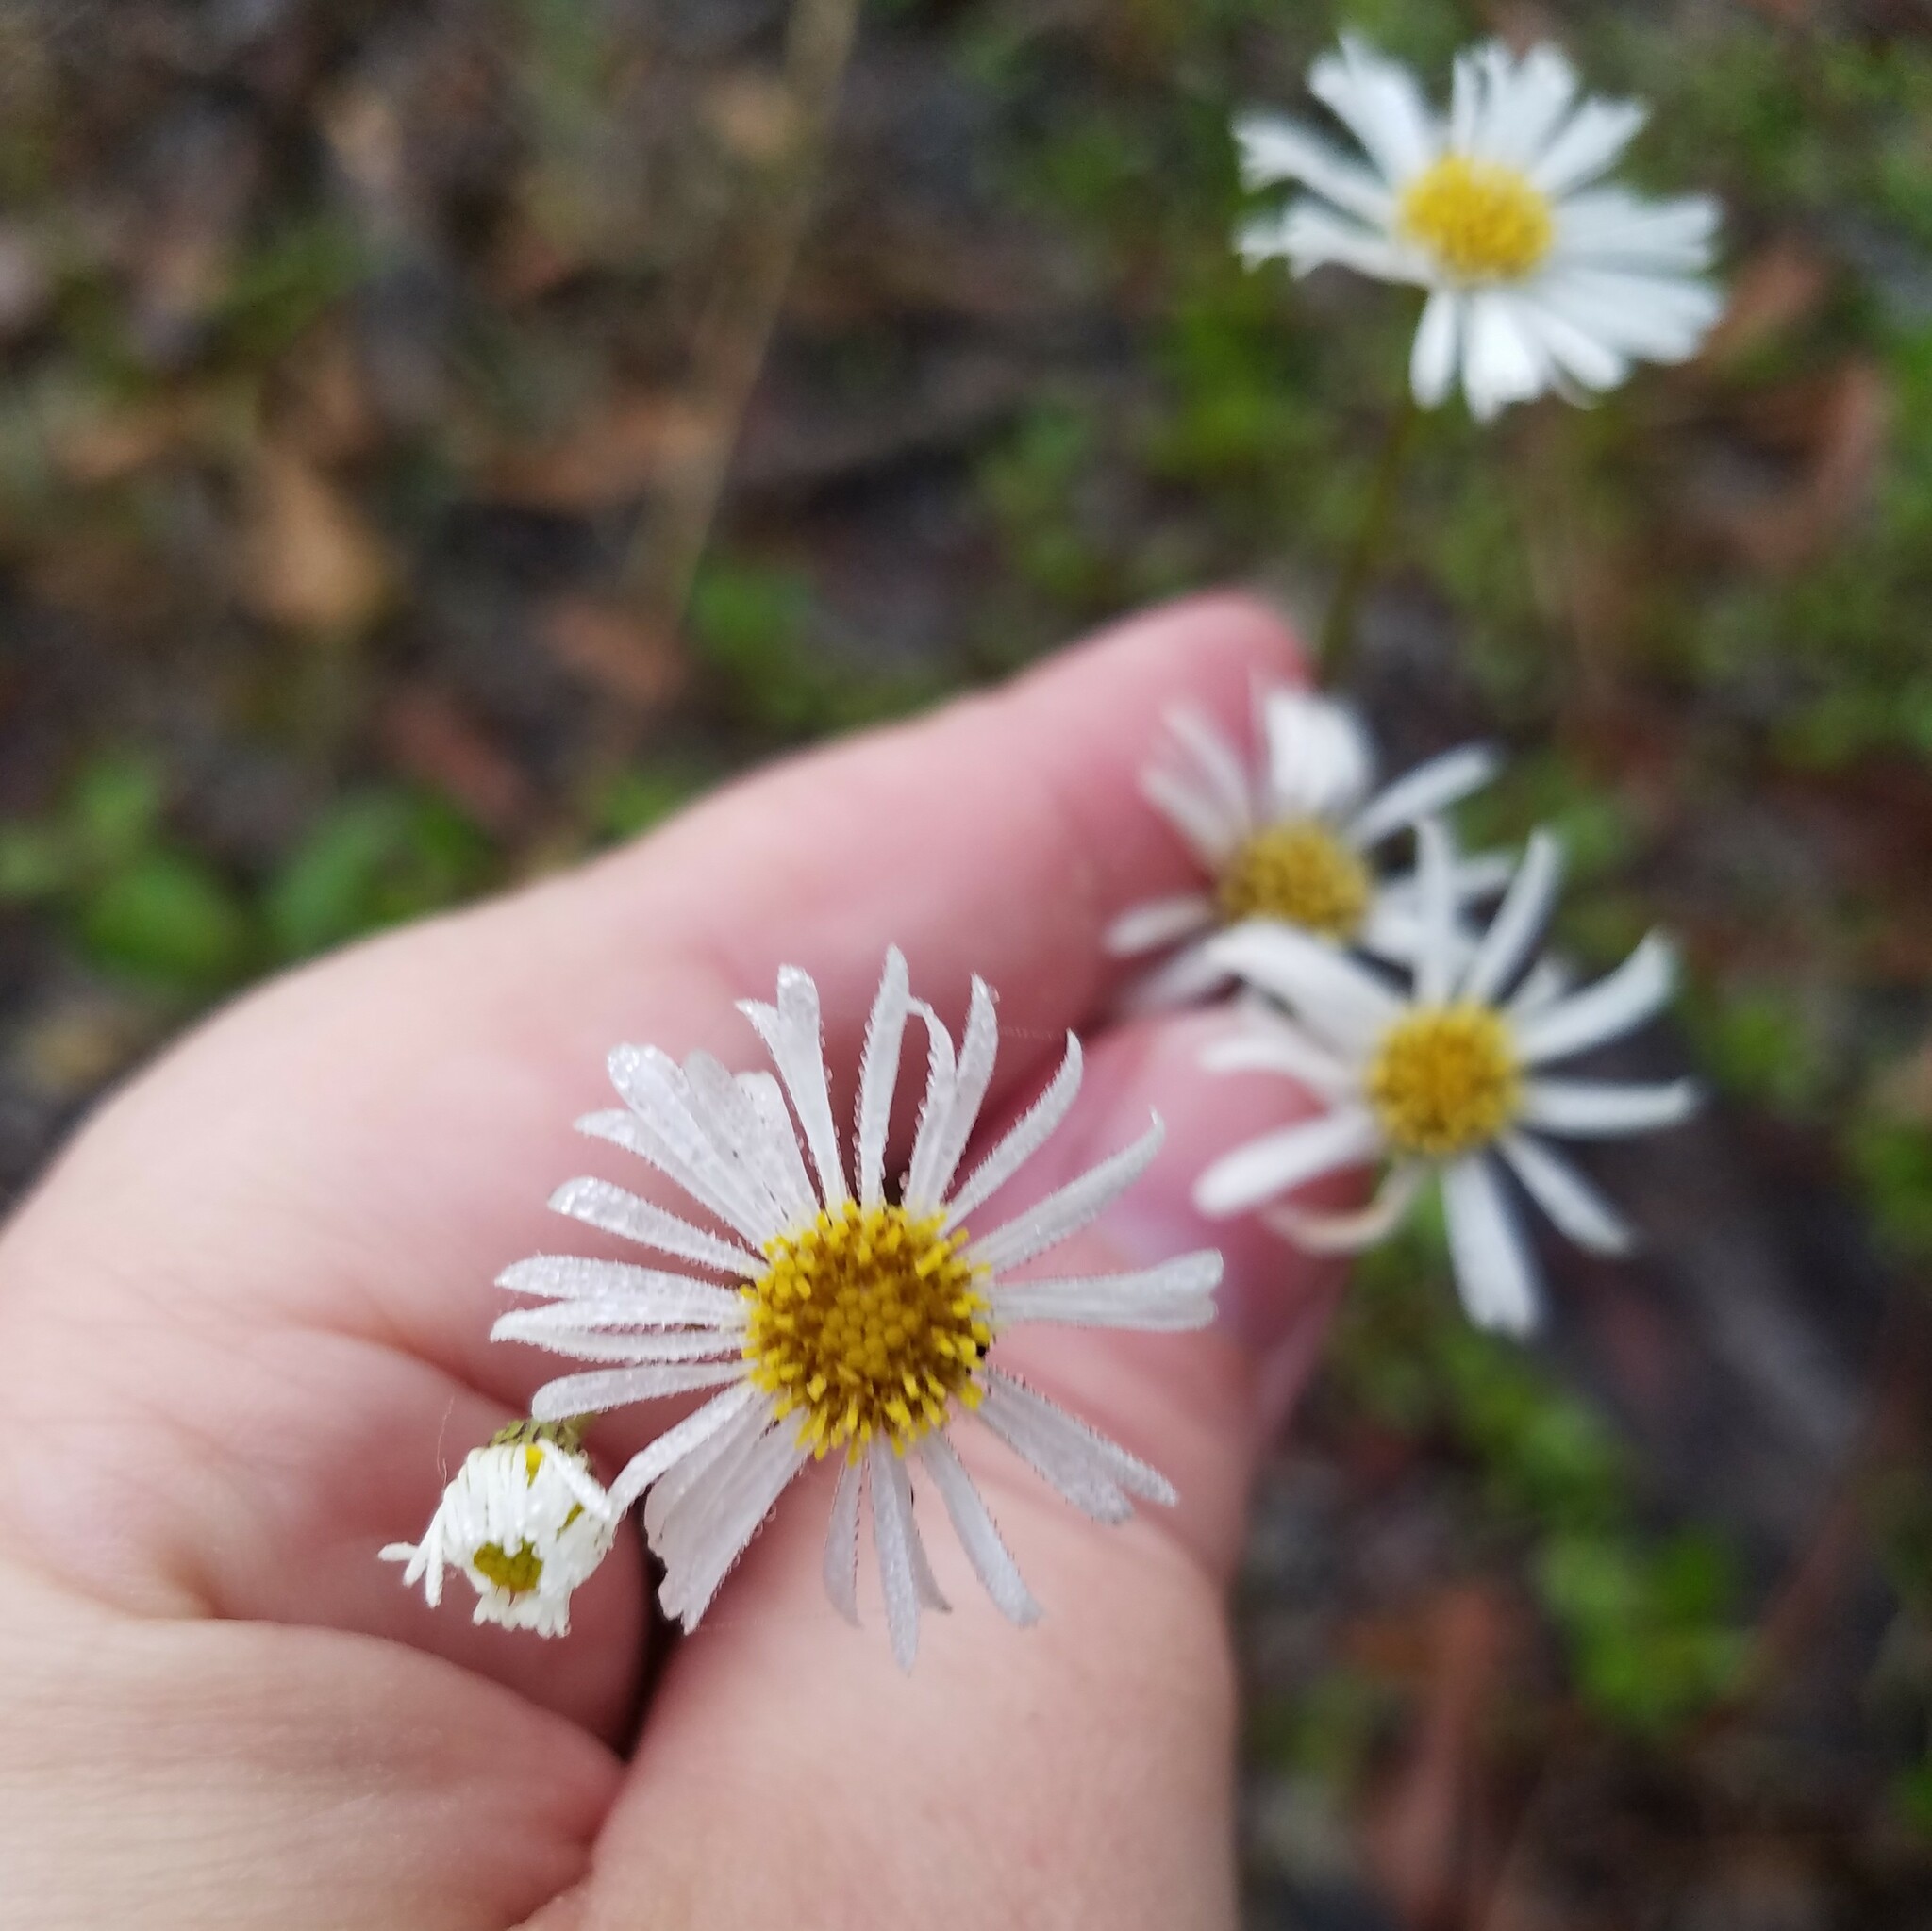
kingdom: Plantae
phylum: Tracheophyta
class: Magnoliopsida
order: Asterales
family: Asteraceae
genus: Erigeron
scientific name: Erigeron vernus
